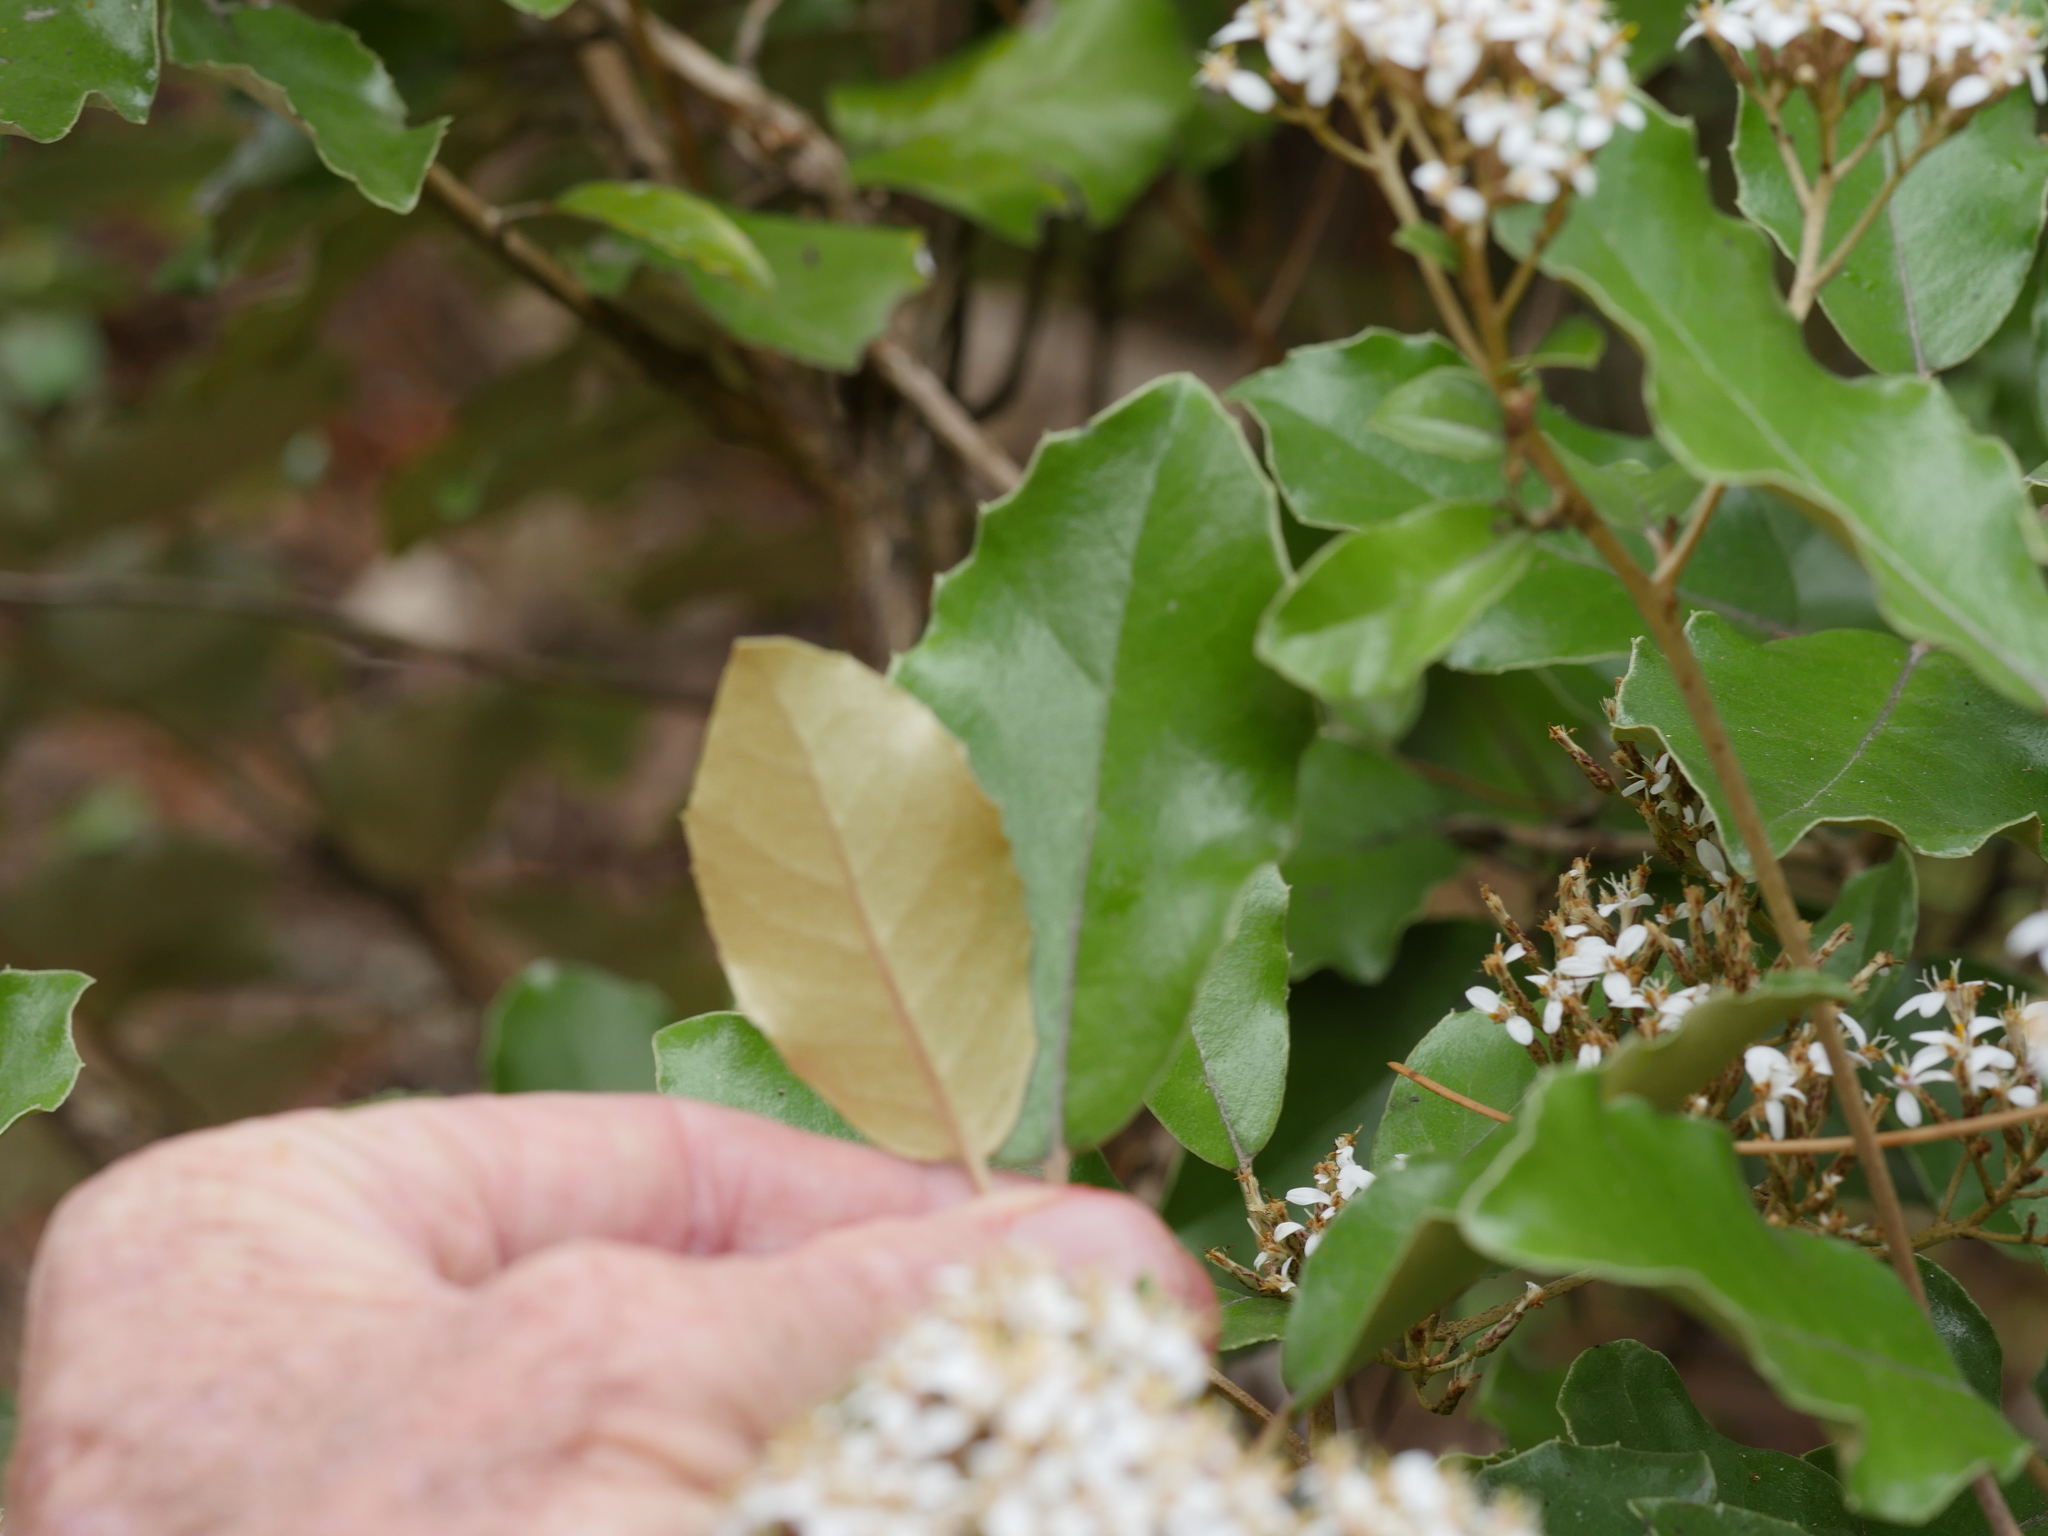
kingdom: Plantae
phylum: Tracheophyta
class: Magnoliopsida
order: Asterales
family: Asteraceae
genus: Olearia
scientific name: Olearia furfuracea
